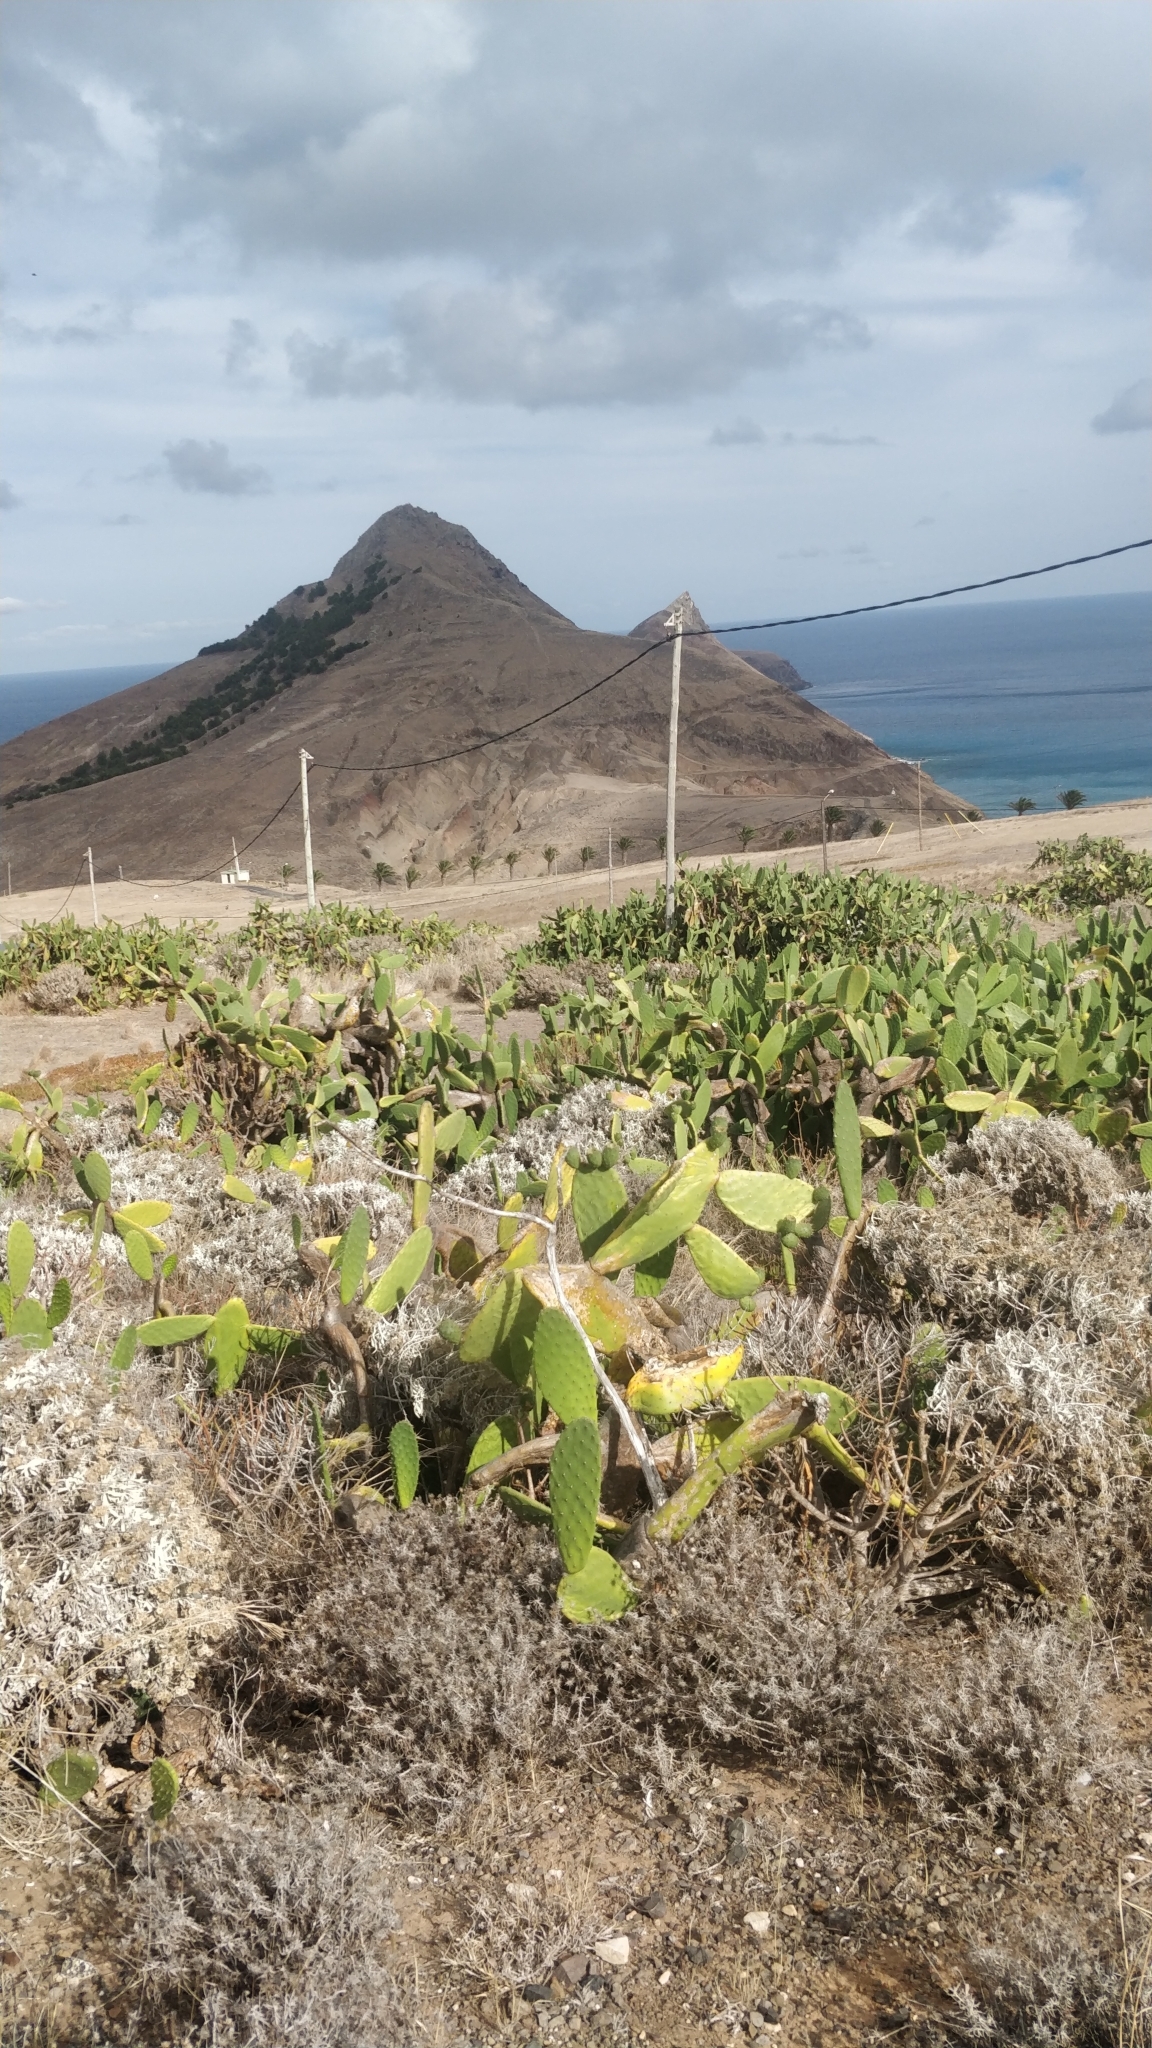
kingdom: Plantae
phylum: Tracheophyta
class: Magnoliopsida
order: Caryophyllales
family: Cactaceae
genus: Opuntia
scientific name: Opuntia ficus-indica
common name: Barbary fig
